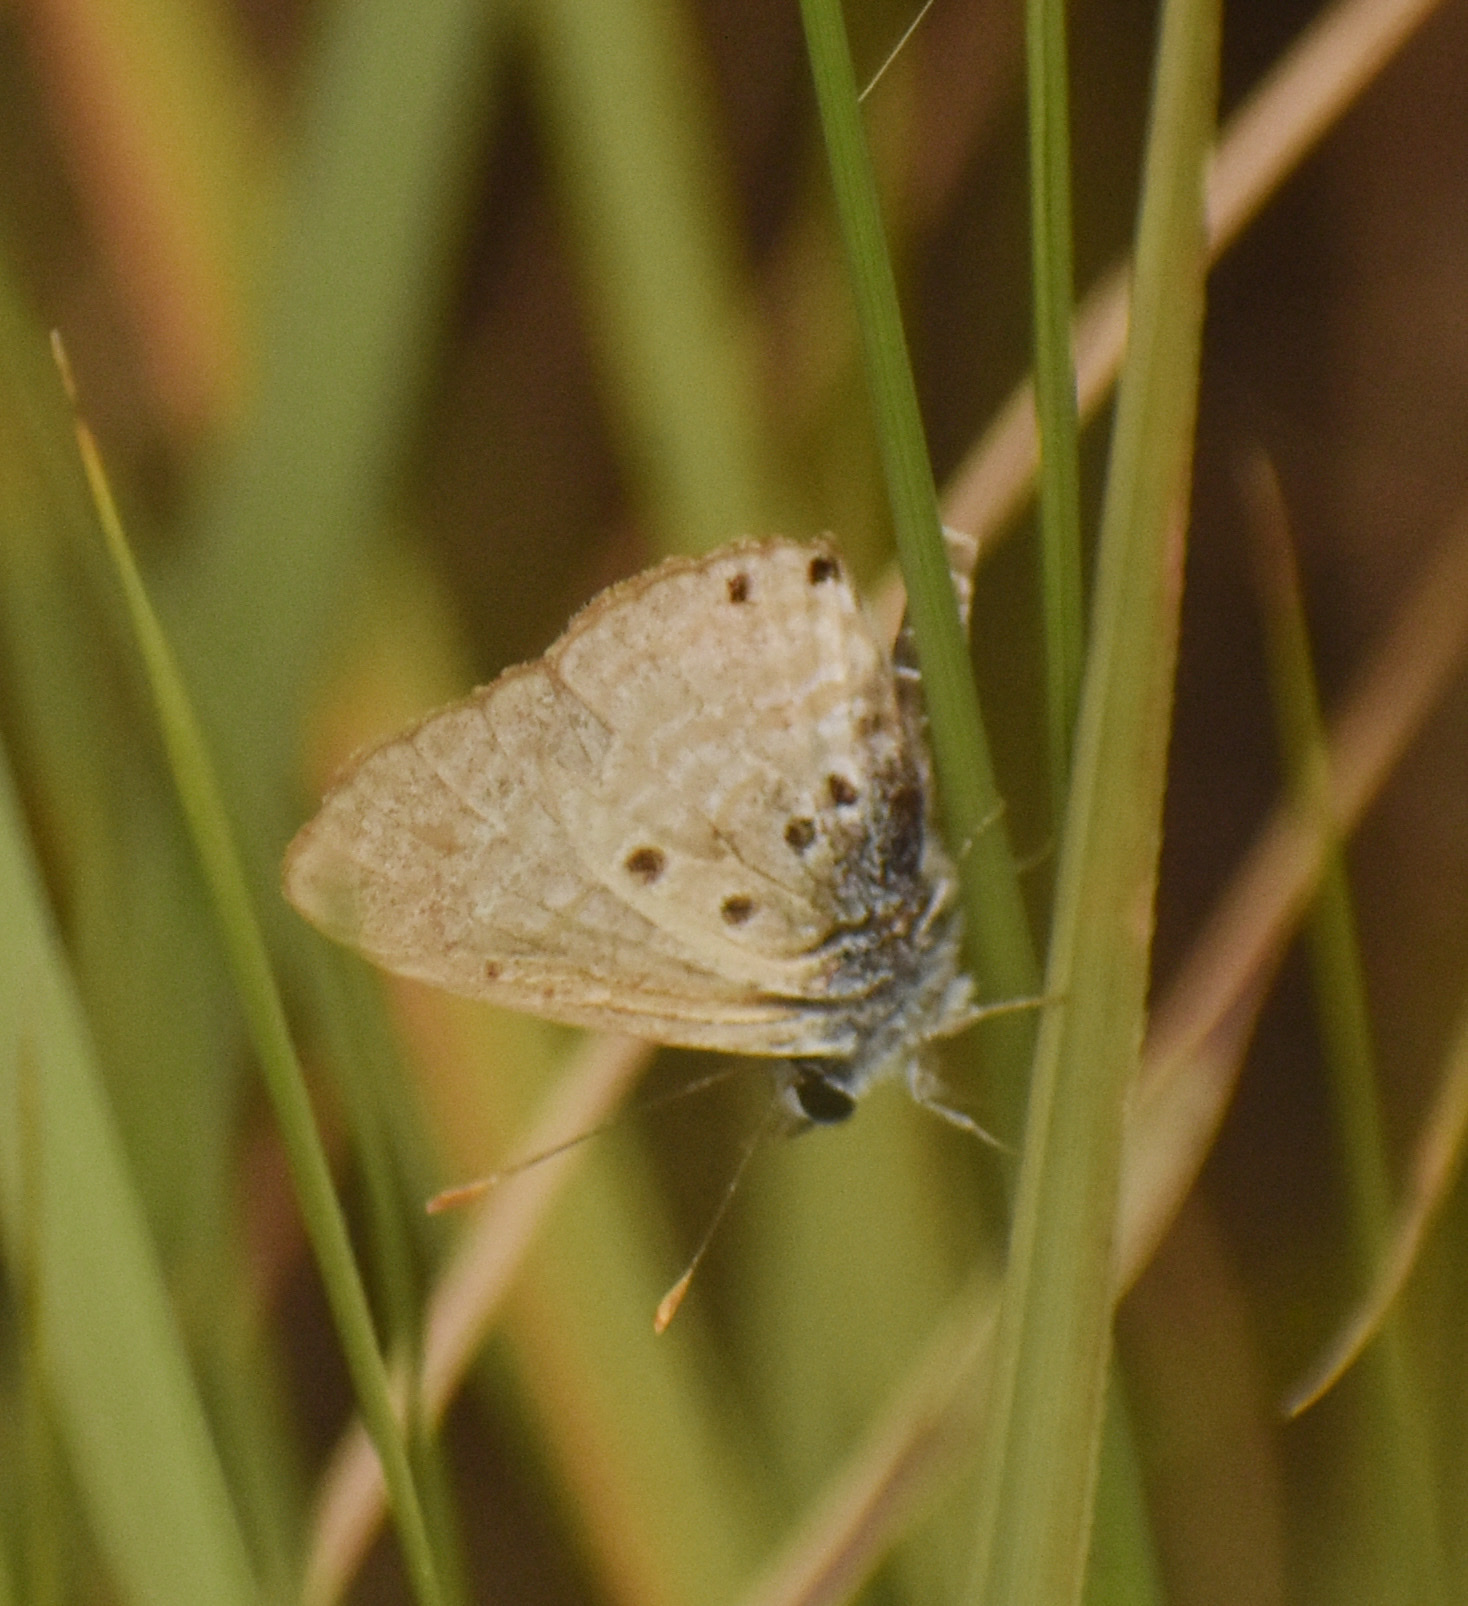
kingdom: Animalia
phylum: Arthropoda
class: Insecta
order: Lepidoptera
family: Lycaenidae
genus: Anthene
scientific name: Anthene amarah
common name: Black-striped hairtail
